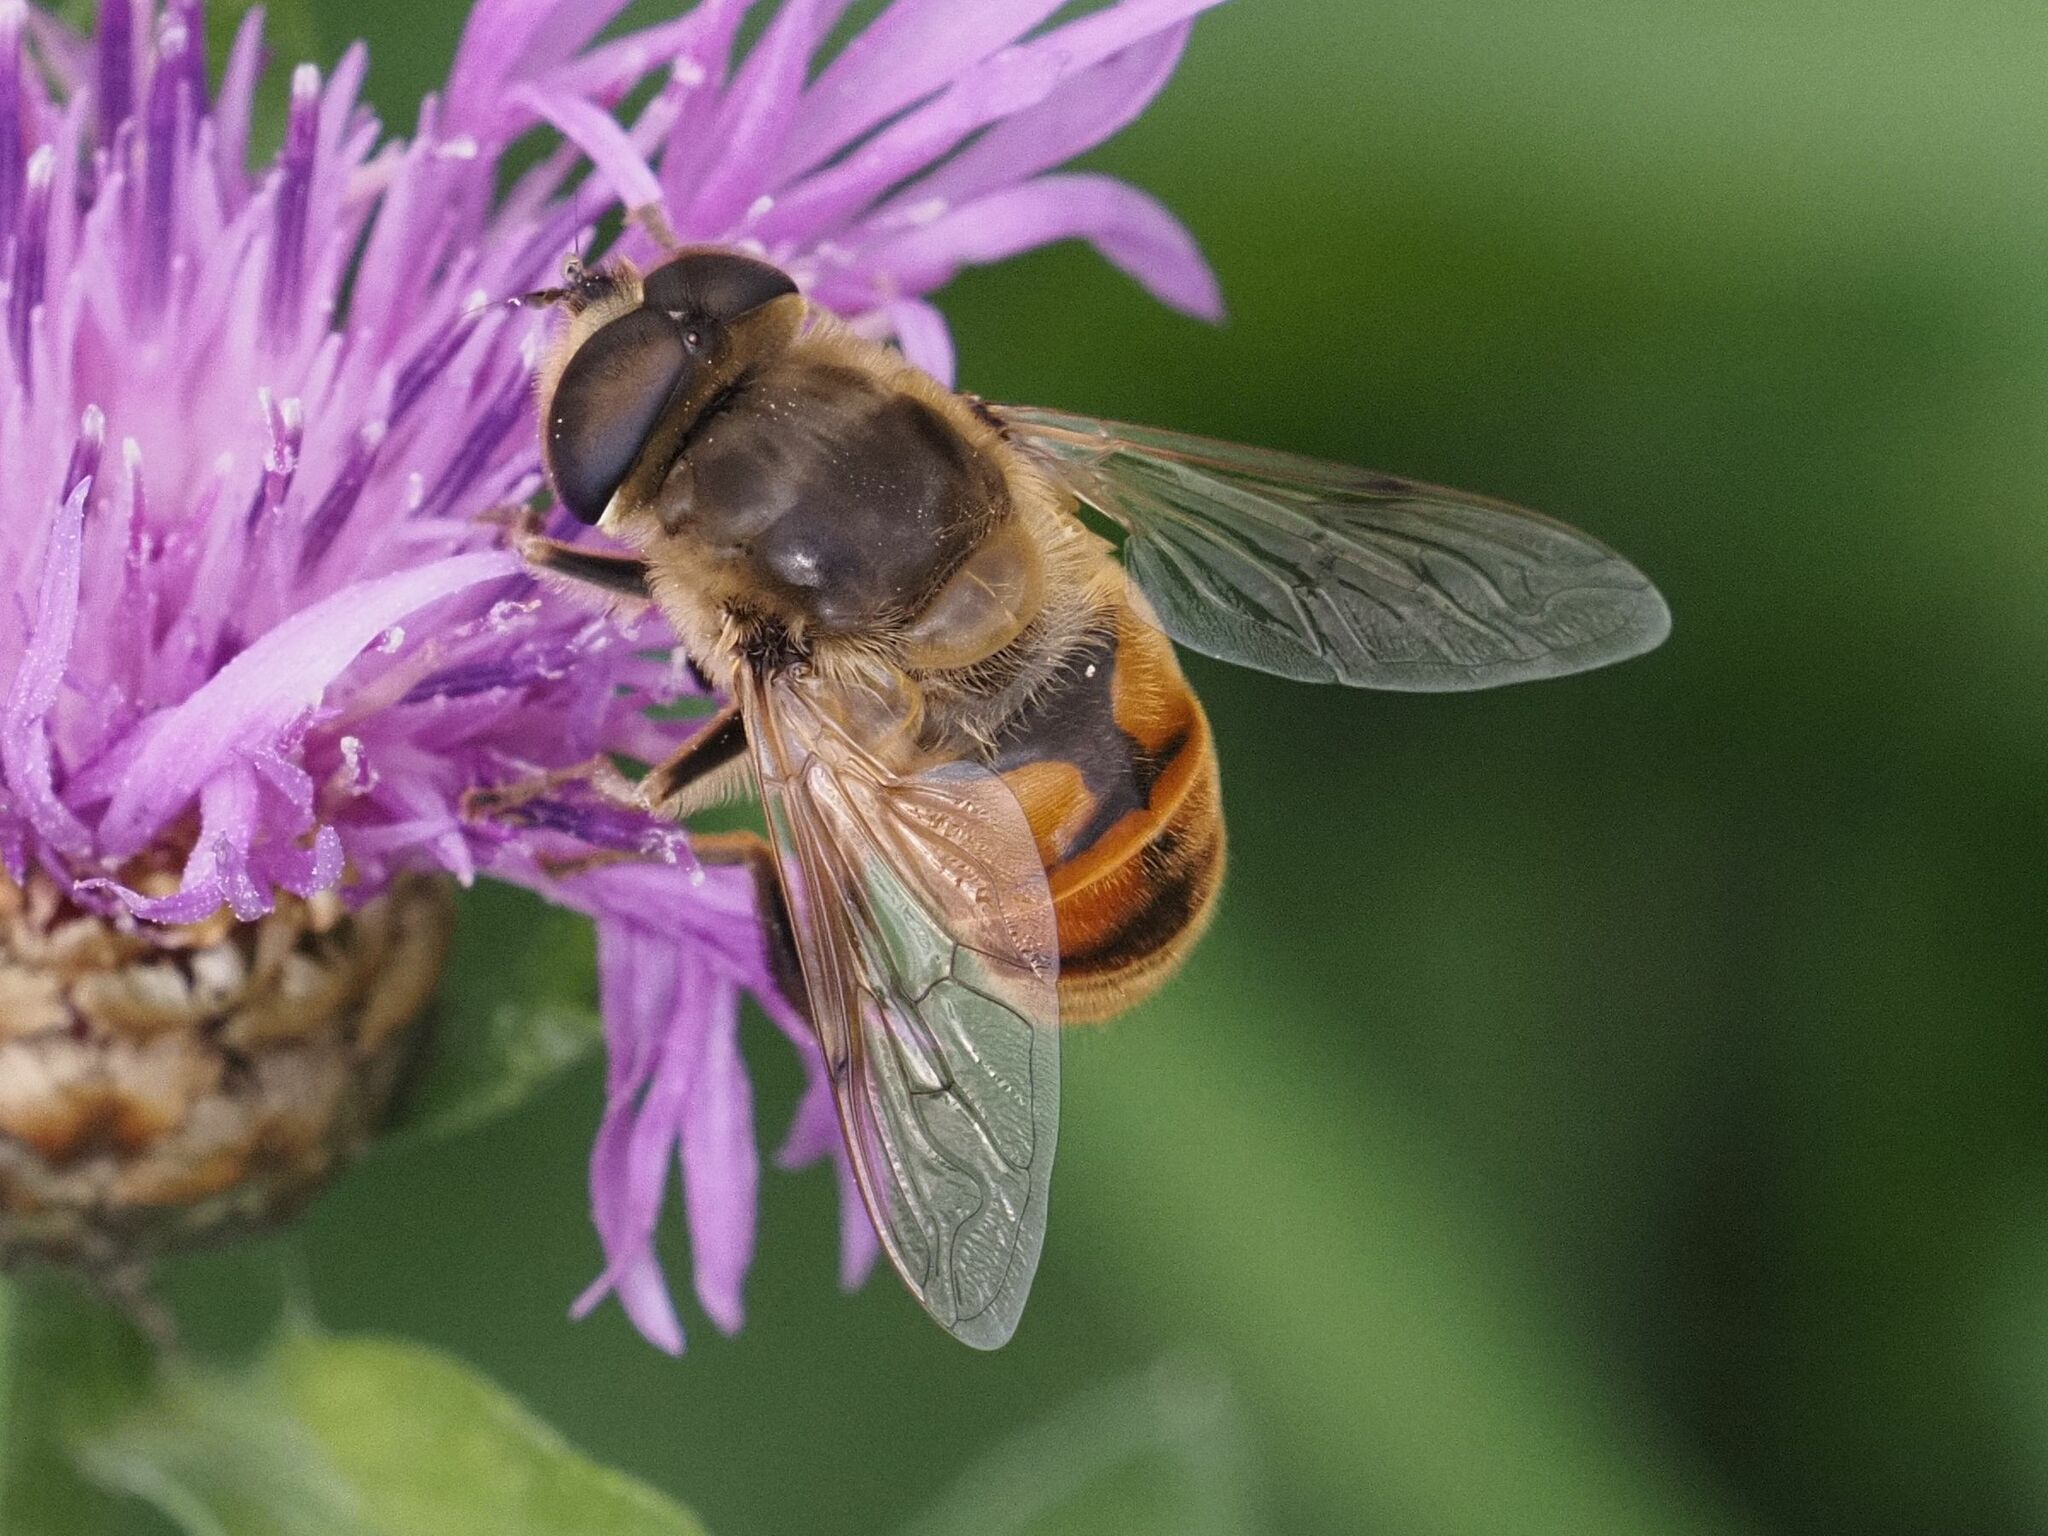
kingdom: Animalia
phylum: Arthropoda
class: Insecta
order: Diptera
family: Syrphidae
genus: Eristalis
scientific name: Eristalis tenax
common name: Drone fly
